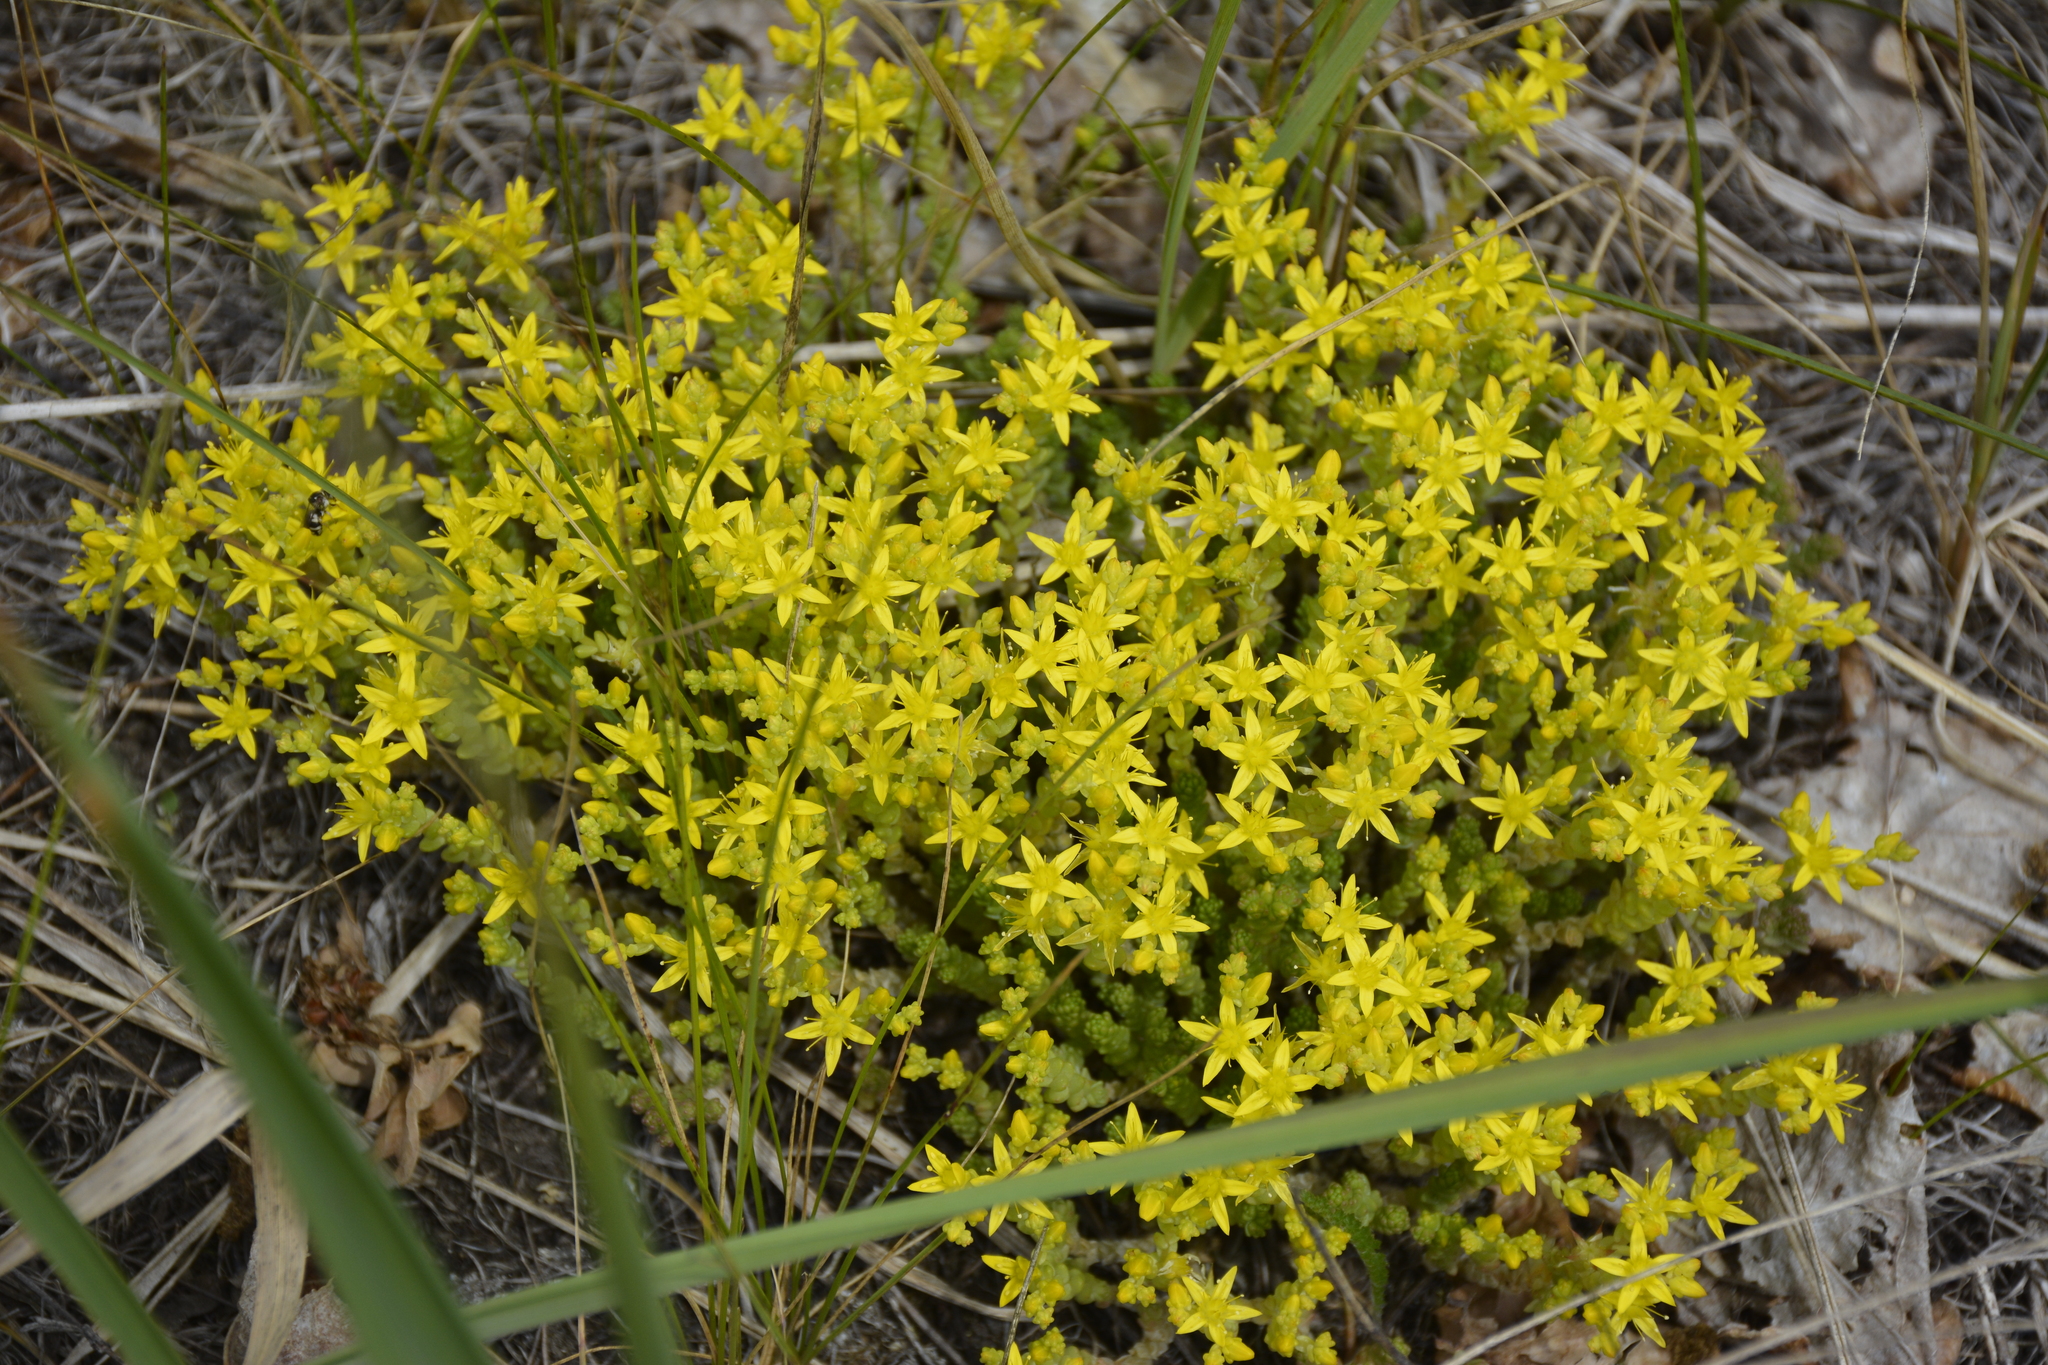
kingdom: Plantae
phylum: Tracheophyta
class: Magnoliopsida
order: Saxifragales
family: Crassulaceae
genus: Sedum
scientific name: Sedum acre
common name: Biting stonecrop
